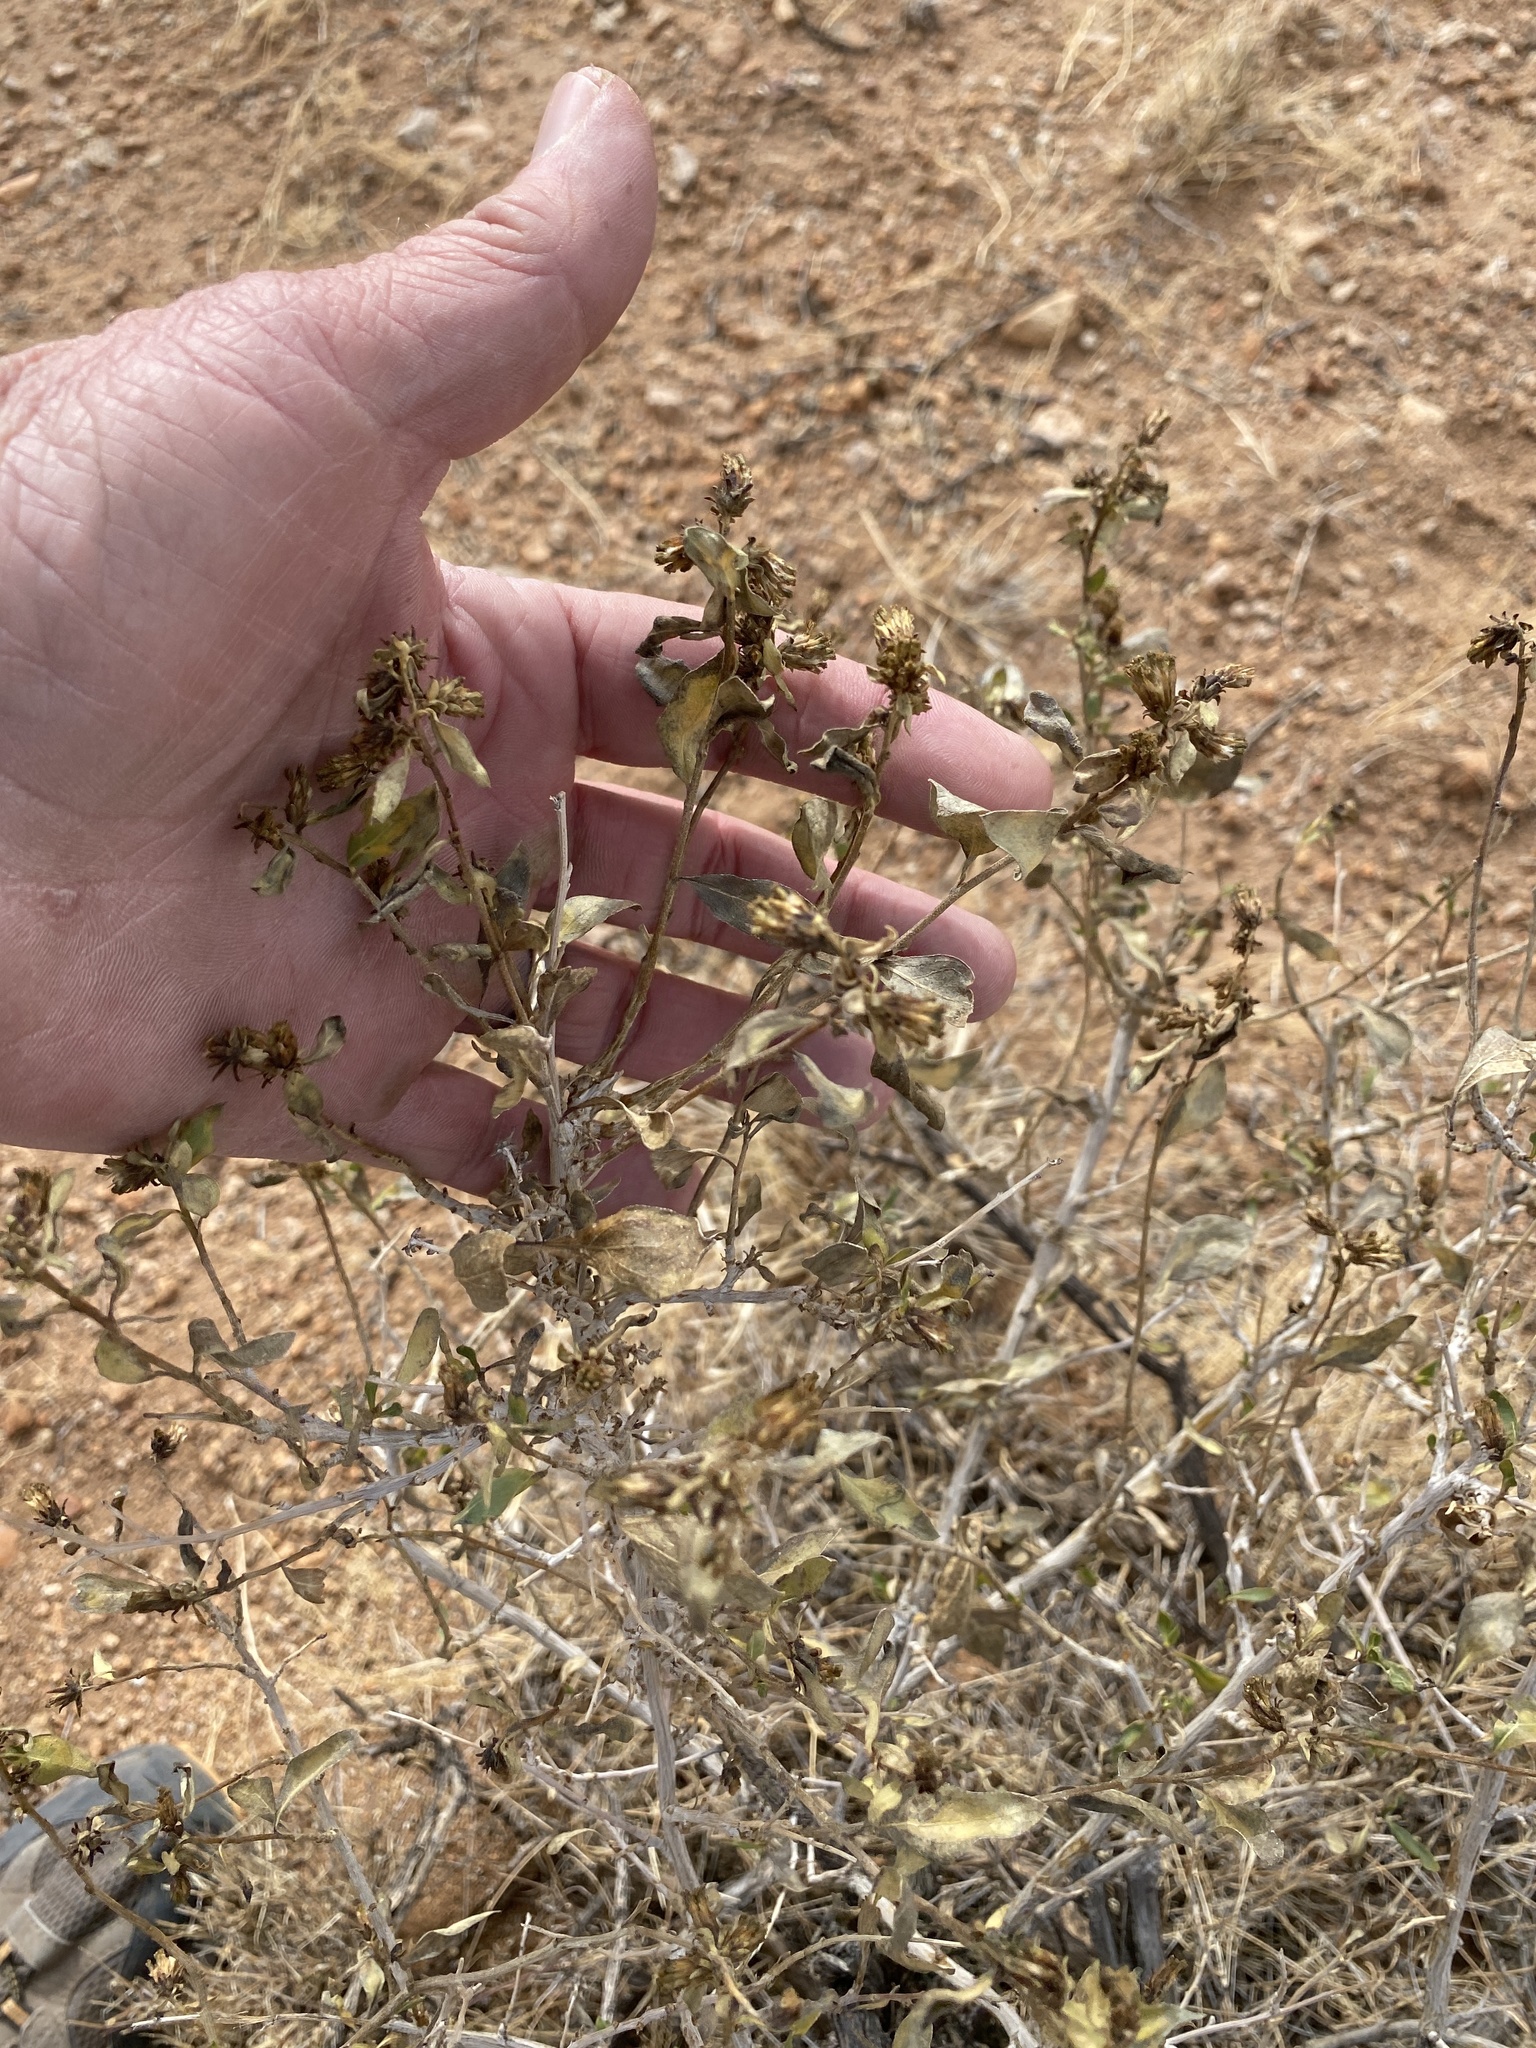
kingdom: Plantae
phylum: Tracheophyta
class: Magnoliopsida
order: Asterales
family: Asteraceae
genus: Flourensia
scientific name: Flourensia cernua
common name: Varnishbush
